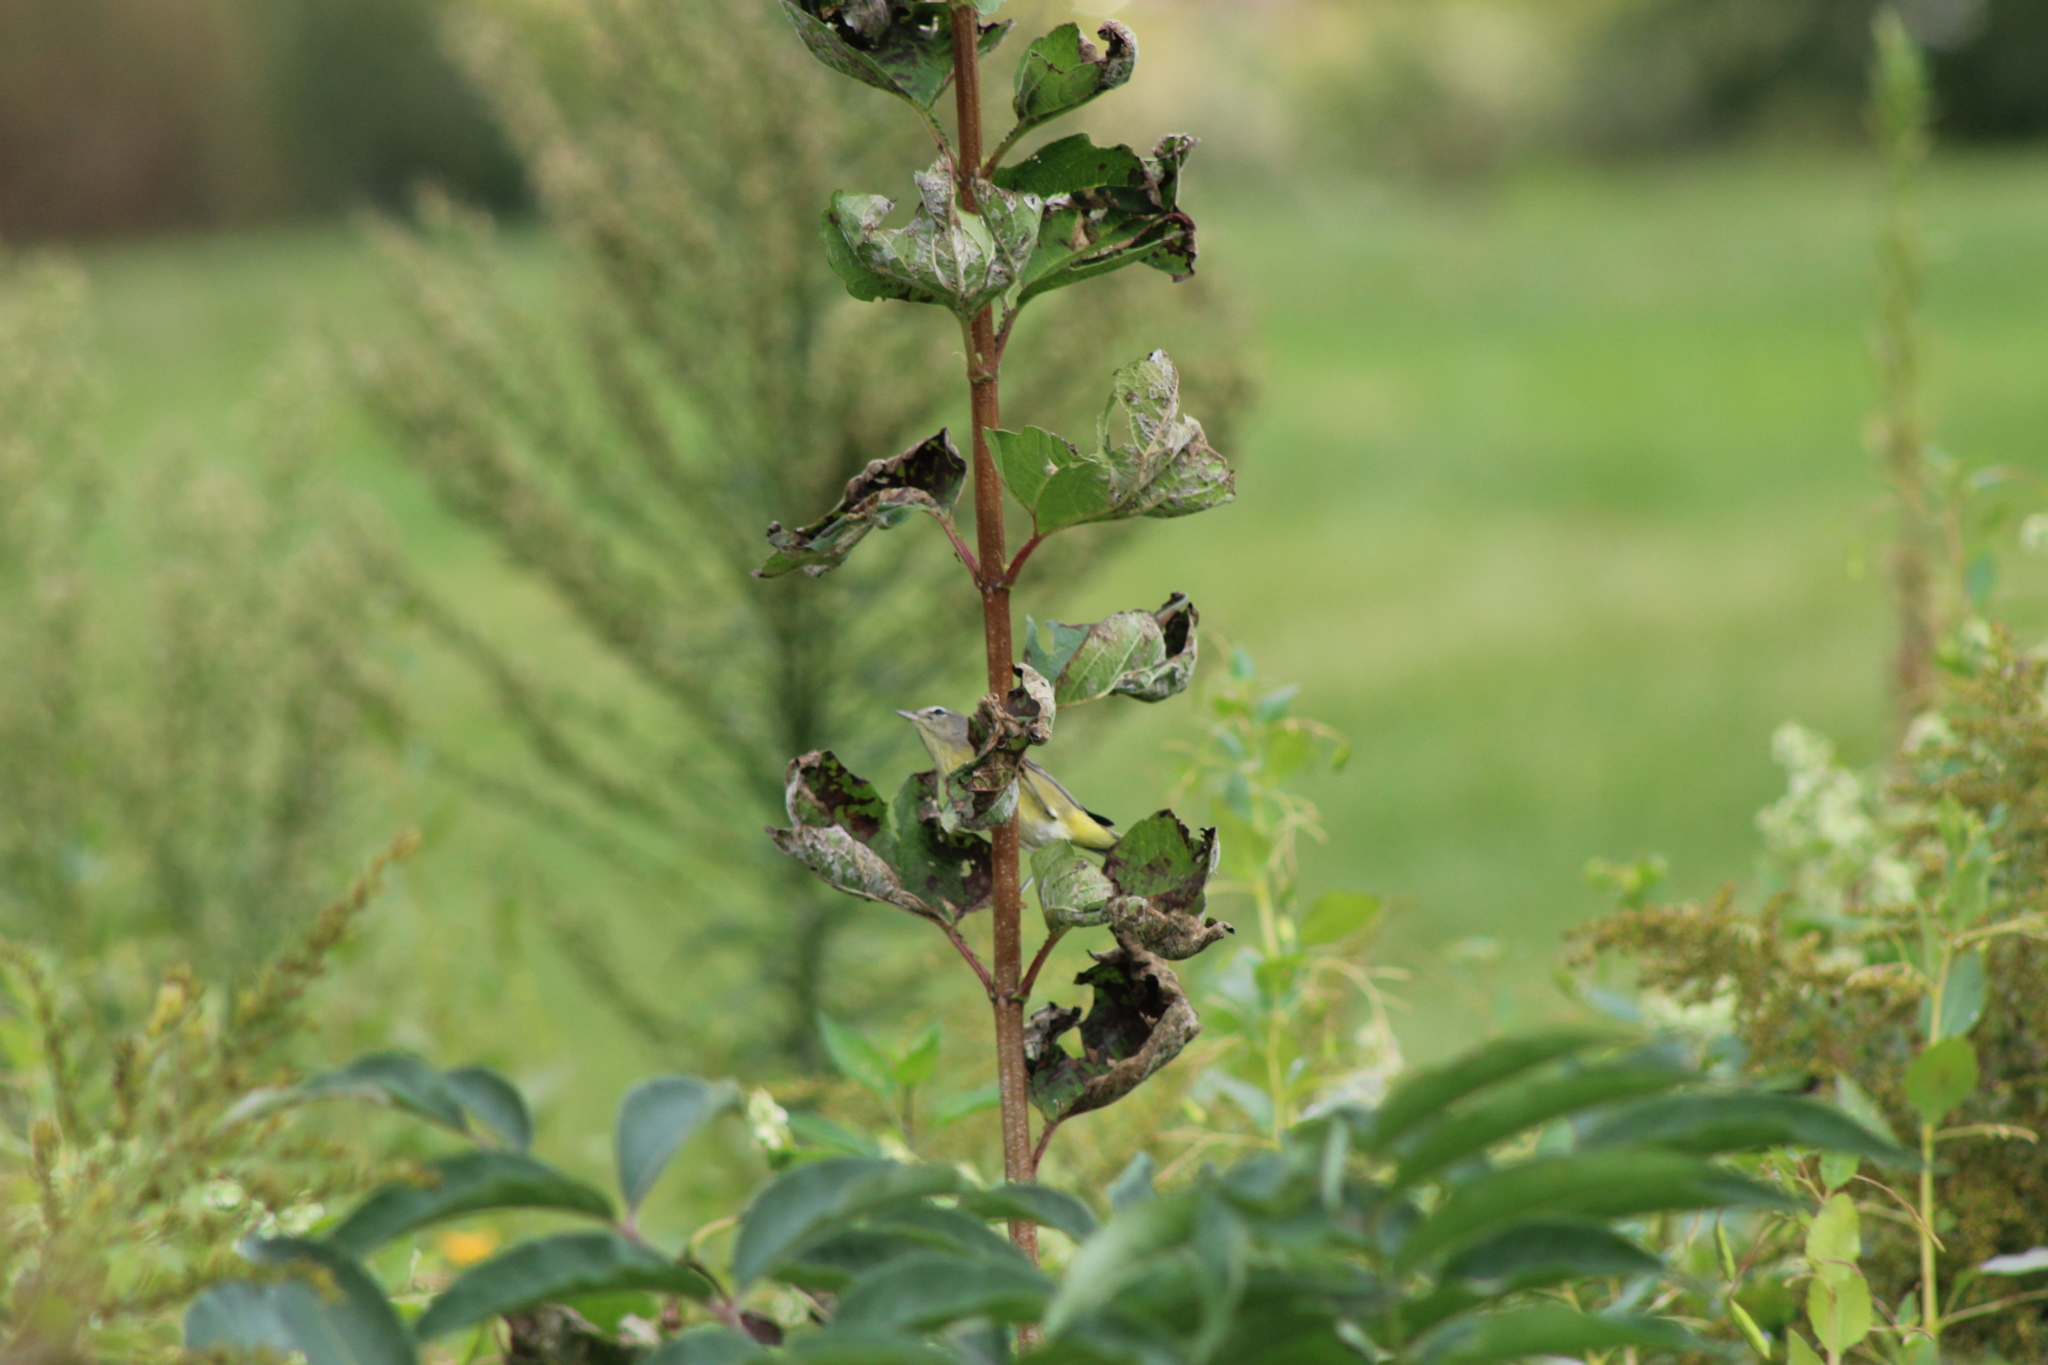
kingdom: Animalia
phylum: Chordata
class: Aves
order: Passeriformes
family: Parulidae
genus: Setophaga
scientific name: Setophaga palmarum
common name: Palm warbler
